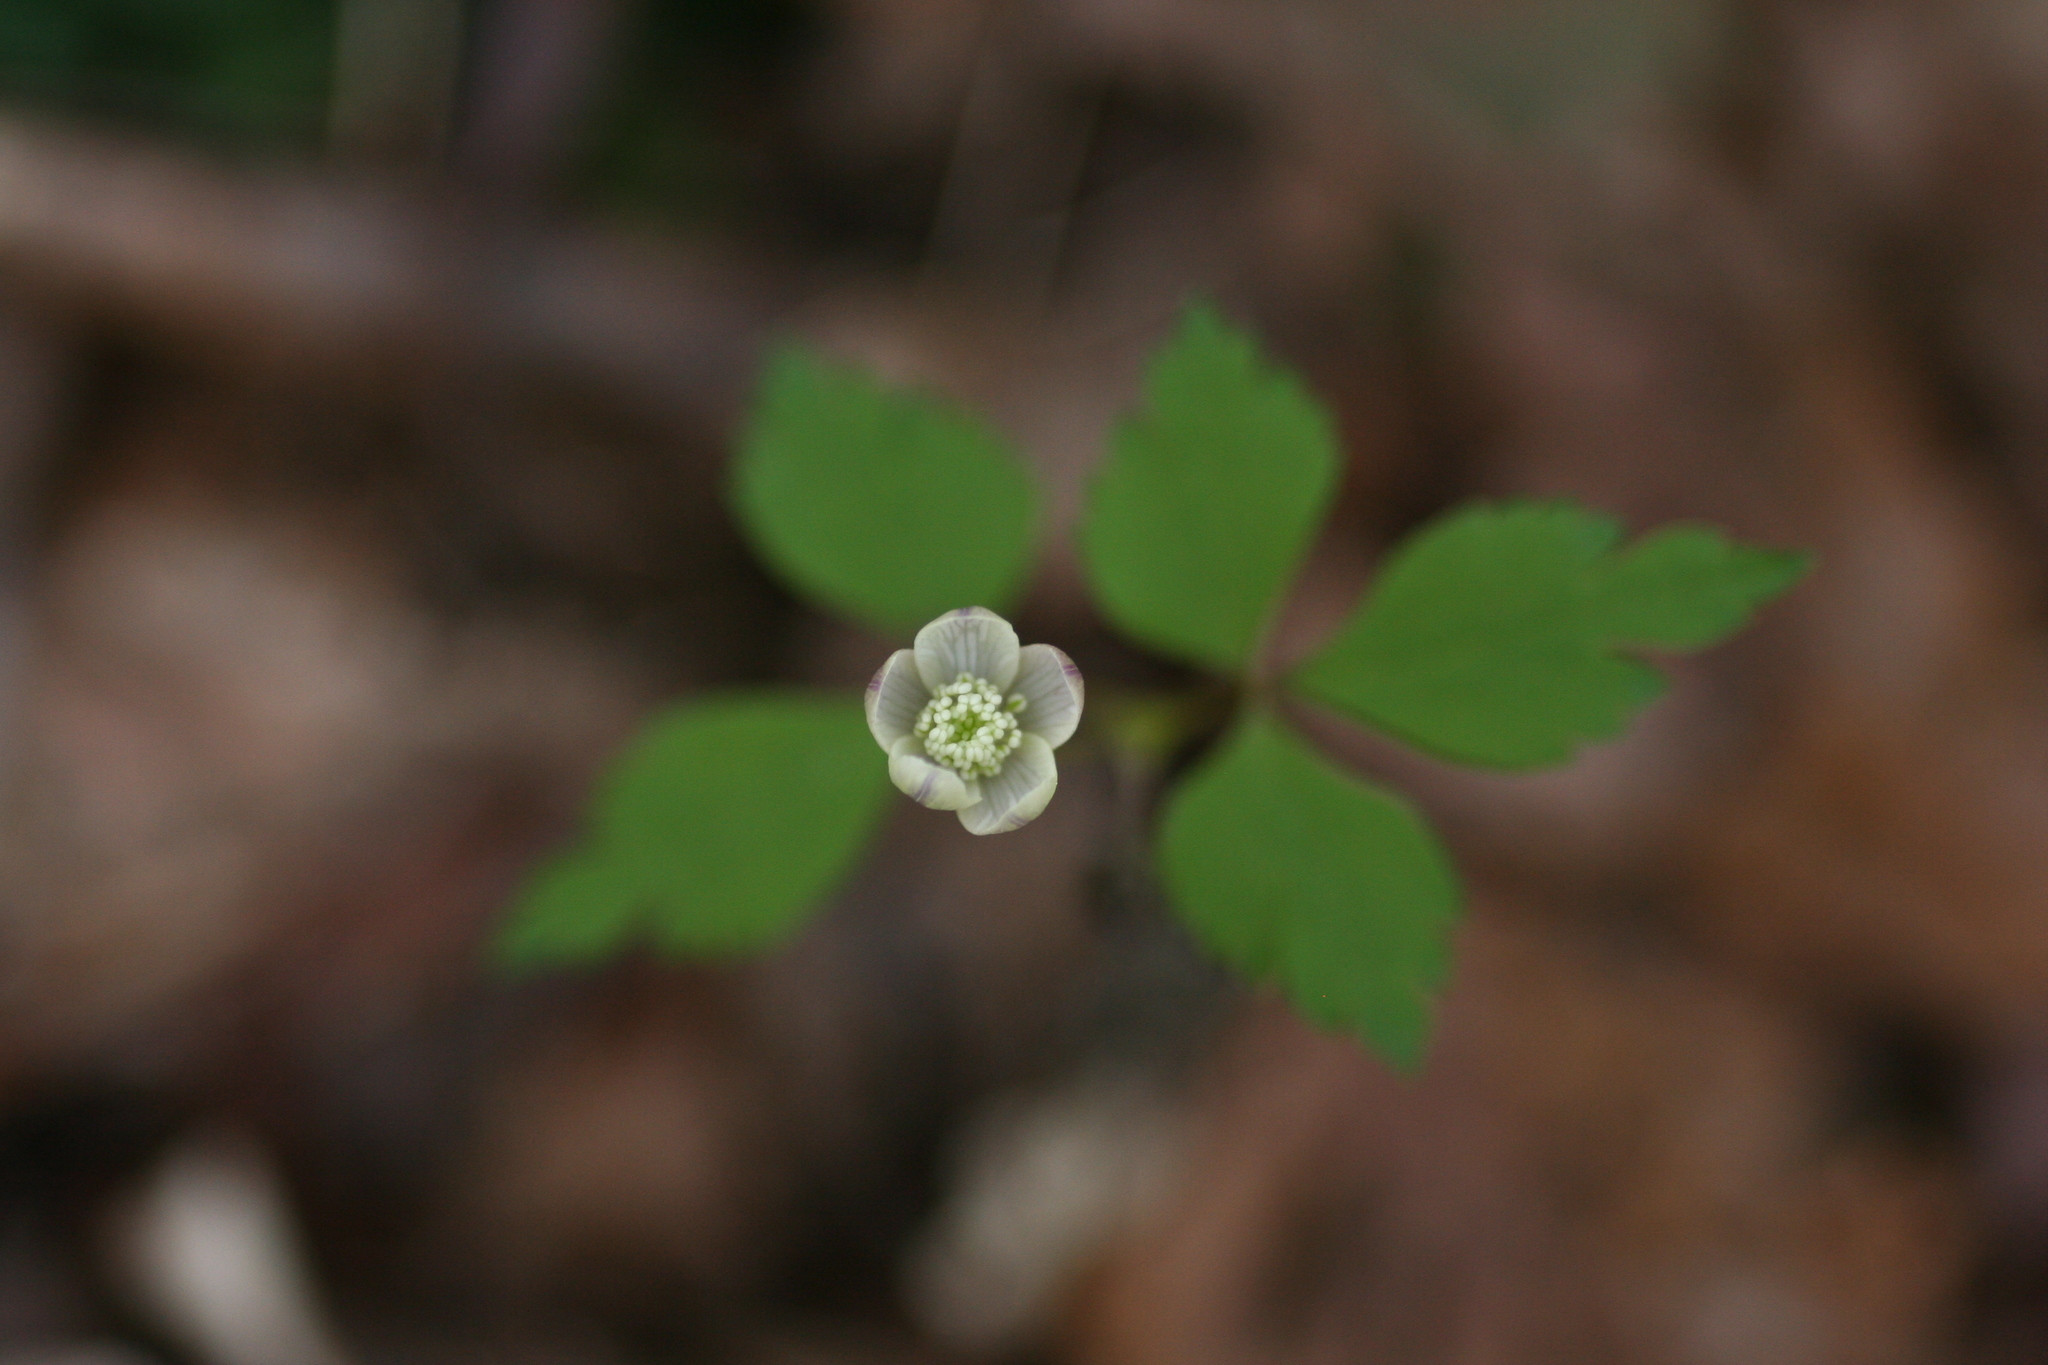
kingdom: Plantae
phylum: Tracheophyta
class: Magnoliopsida
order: Ranunculales
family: Ranunculaceae
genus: Anemone
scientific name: Anemone quinquefolia
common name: Wood anemone
